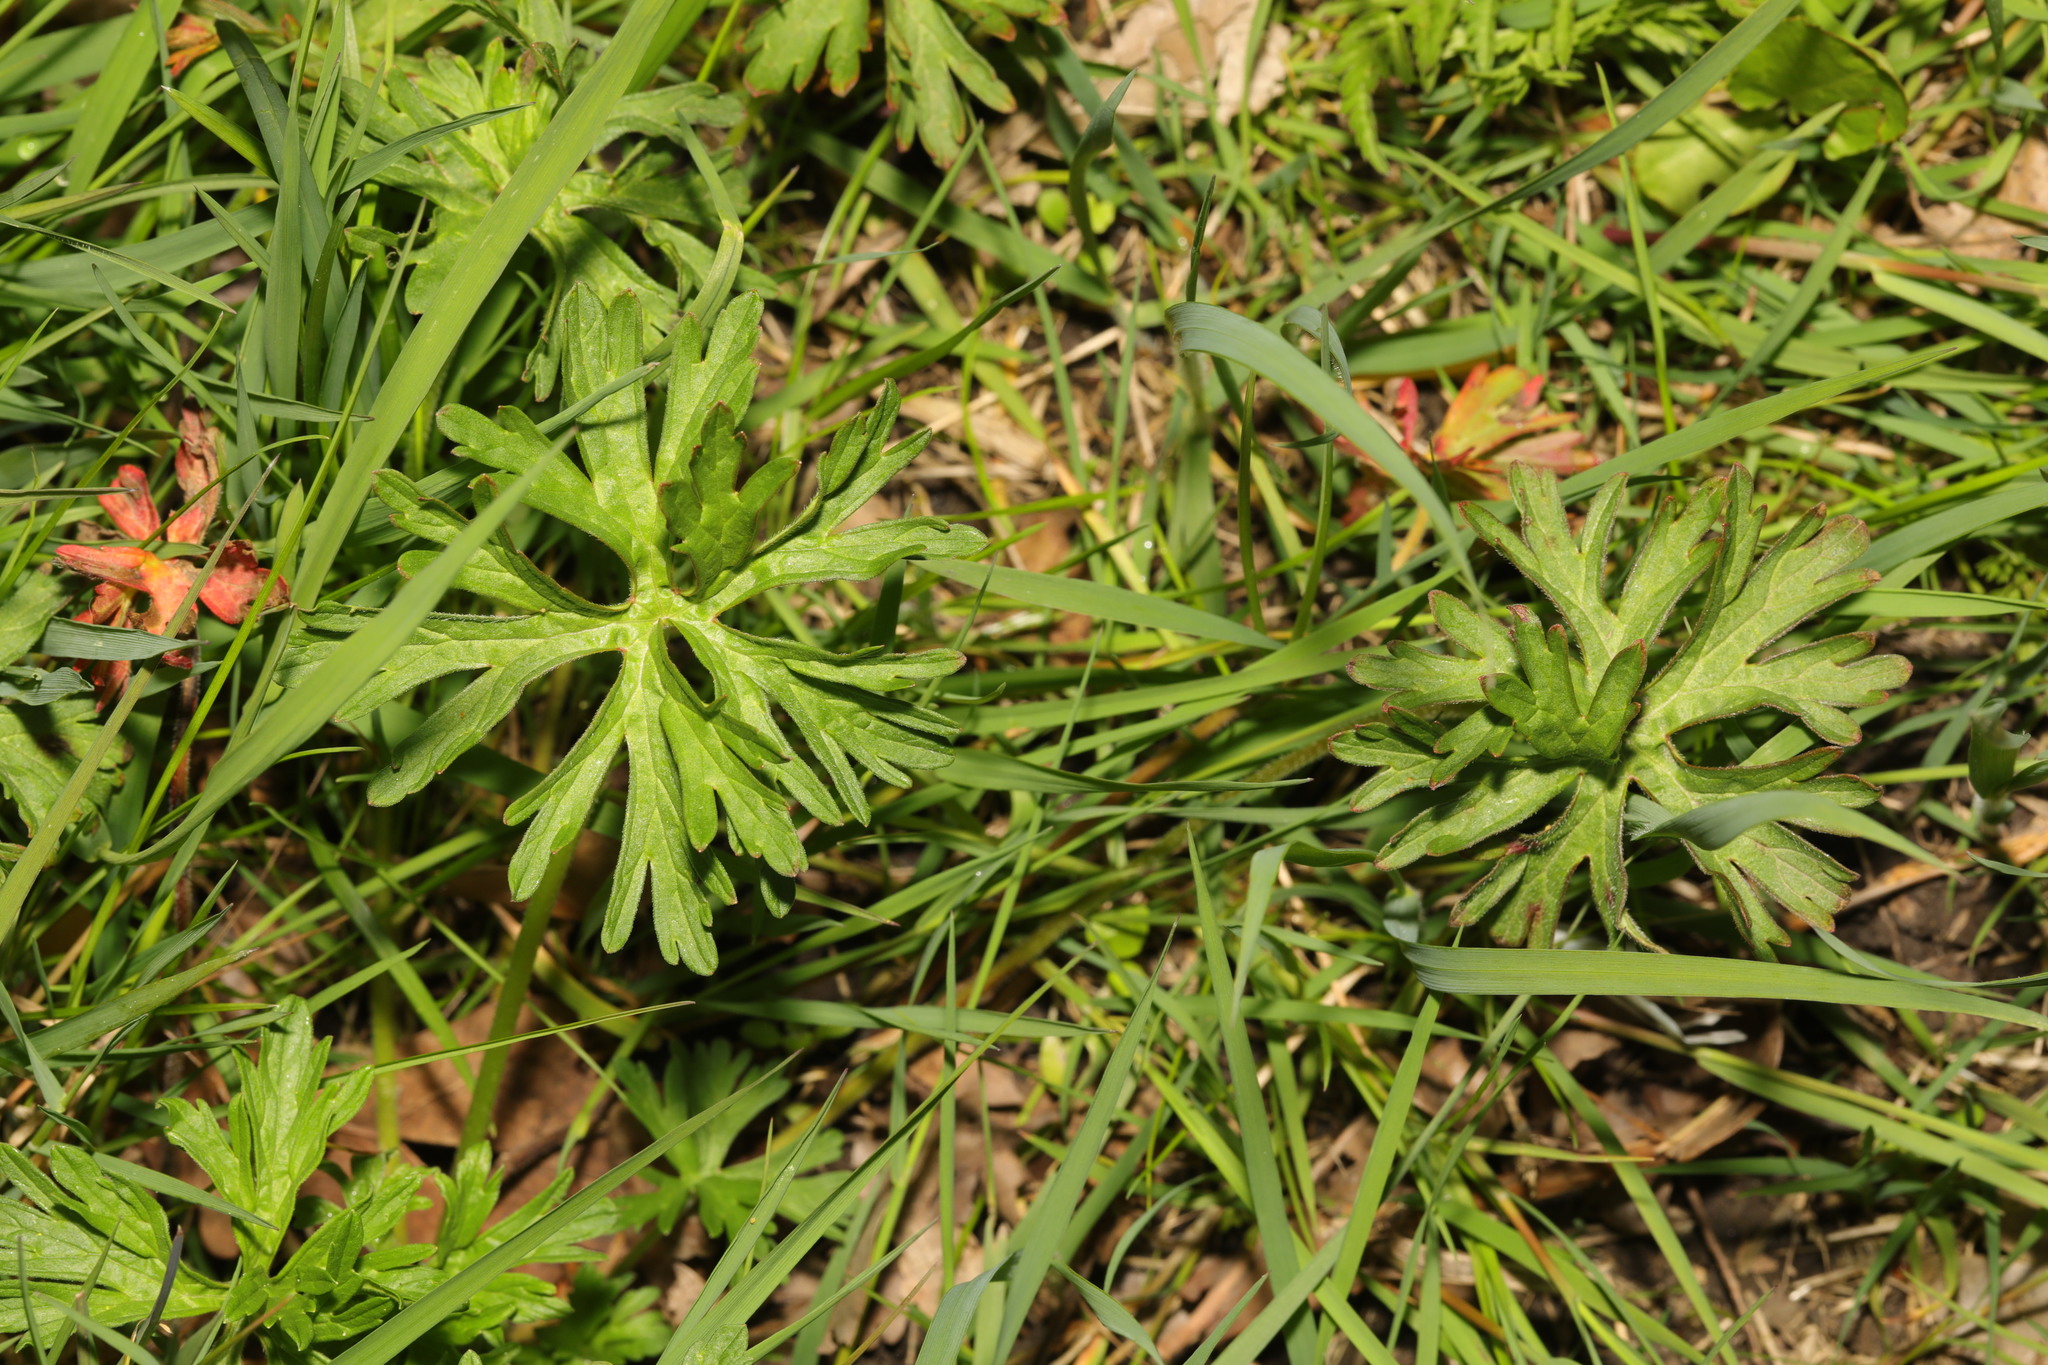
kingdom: Plantae
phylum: Tracheophyta
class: Magnoliopsida
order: Ranunculales
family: Ranunculaceae
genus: Ranunculus
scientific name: Ranunculus acris
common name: Meadow buttercup
